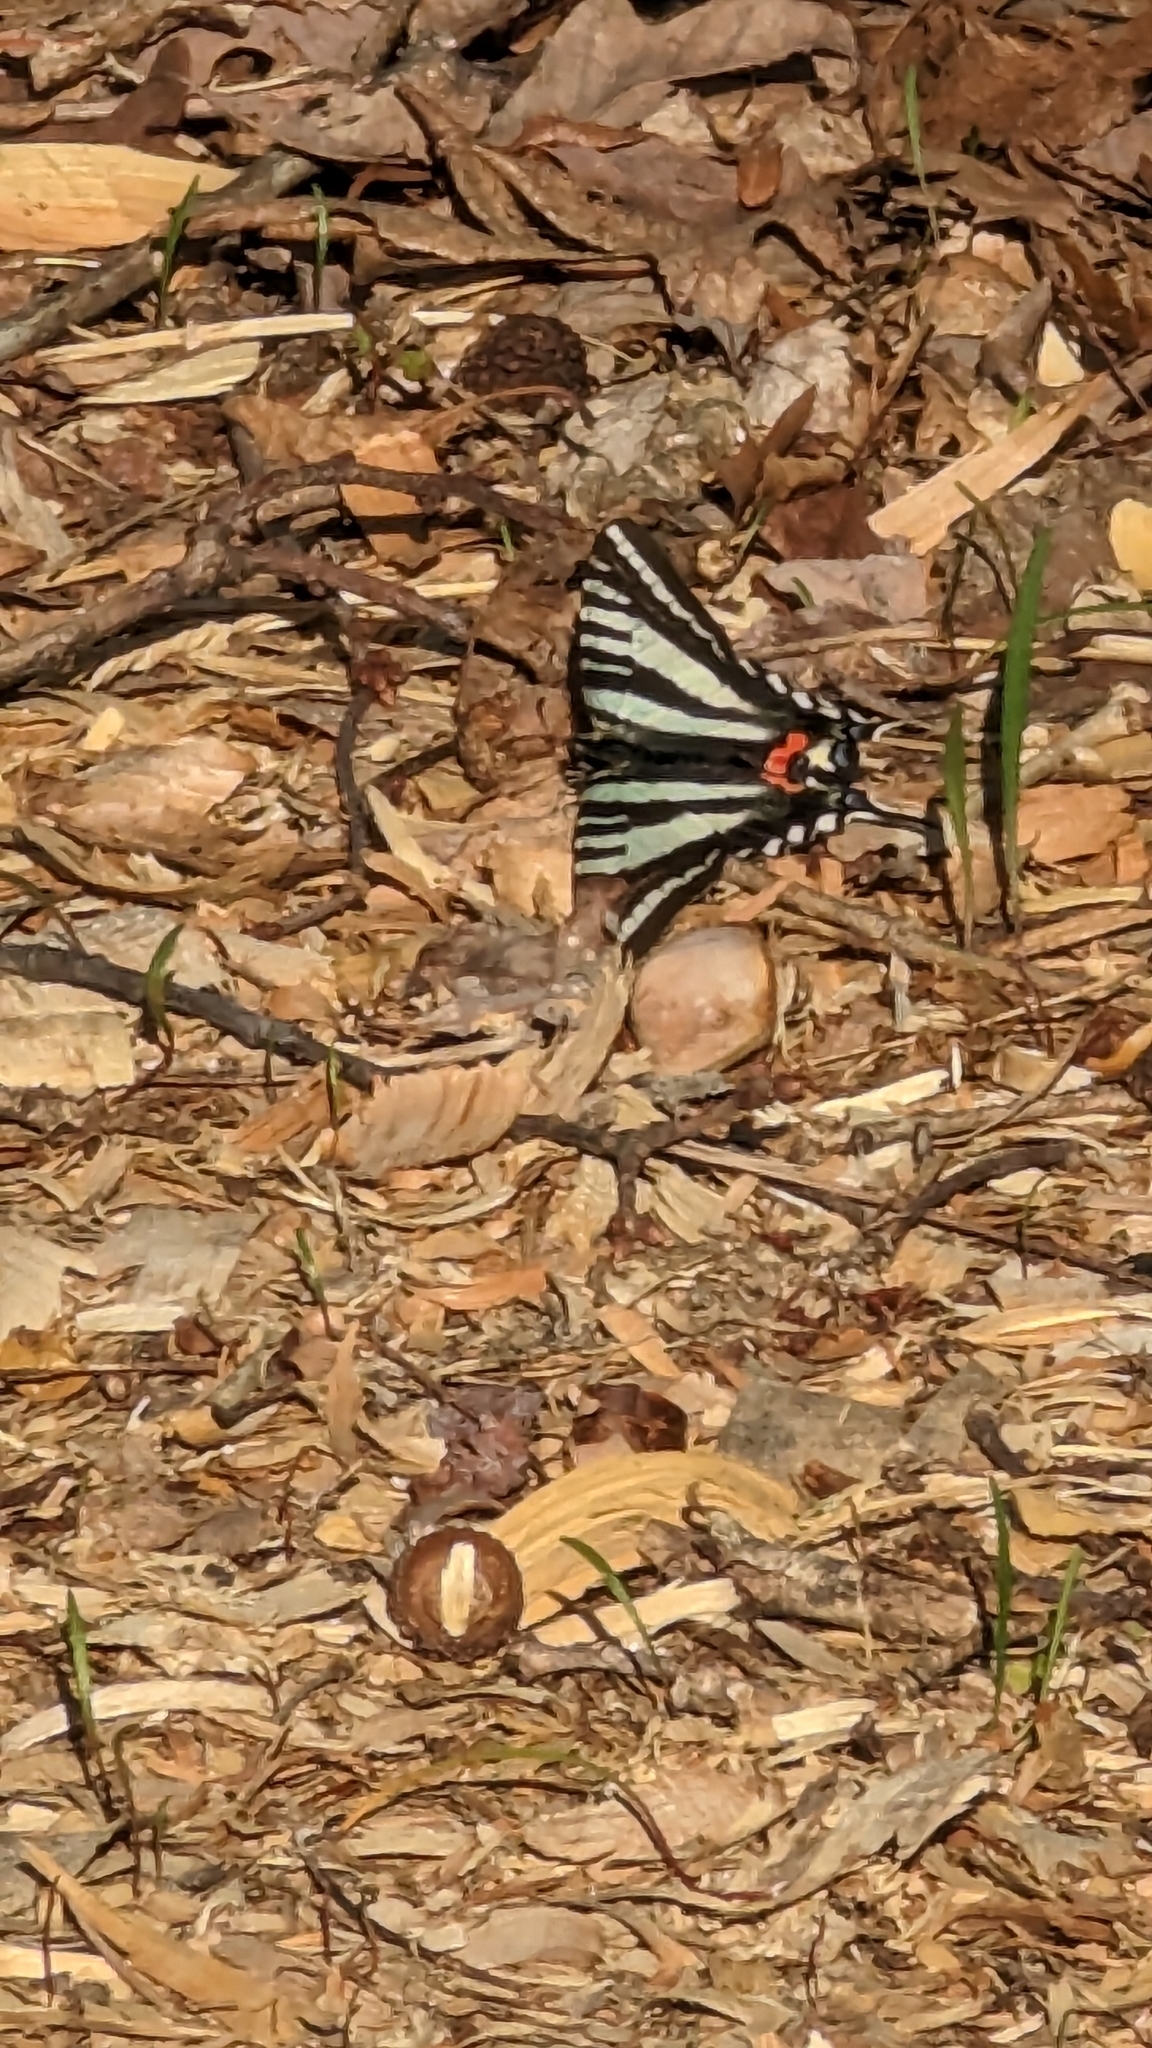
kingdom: Animalia
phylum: Arthropoda
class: Insecta
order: Lepidoptera
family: Papilionidae
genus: Protographium
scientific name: Protographium marcellus
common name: Zebra swallowtail
